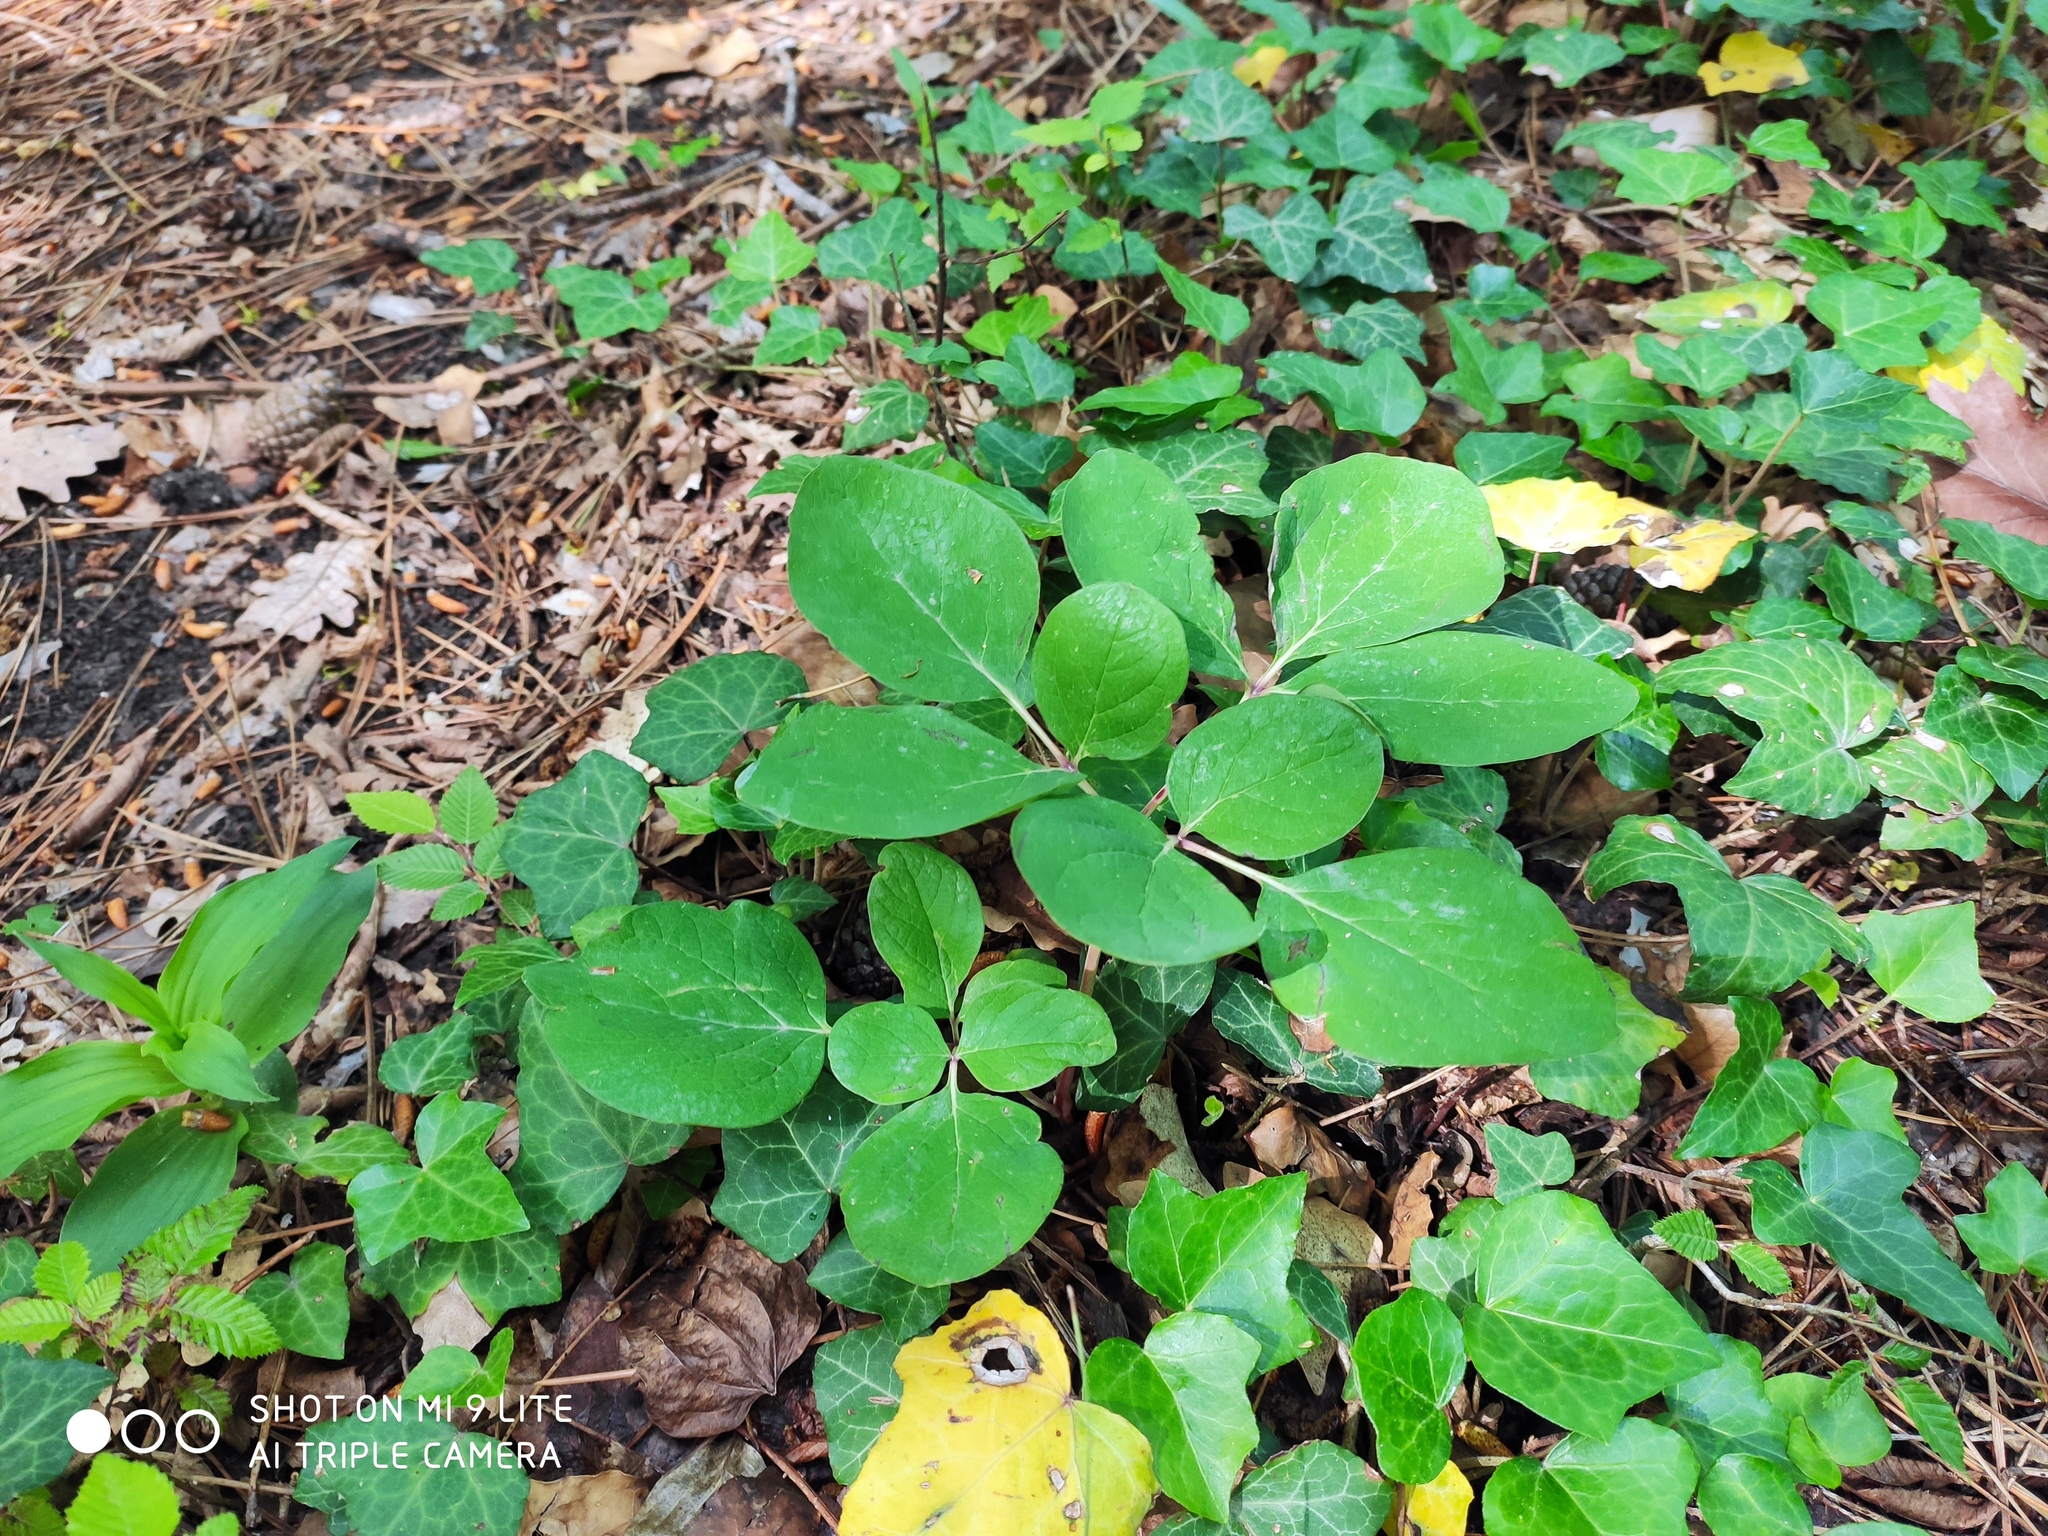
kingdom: Plantae
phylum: Tracheophyta
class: Magnoliopsida
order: Saxifragales
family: Paeoniaceae
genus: Paeonia
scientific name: Paeonia caucasica
